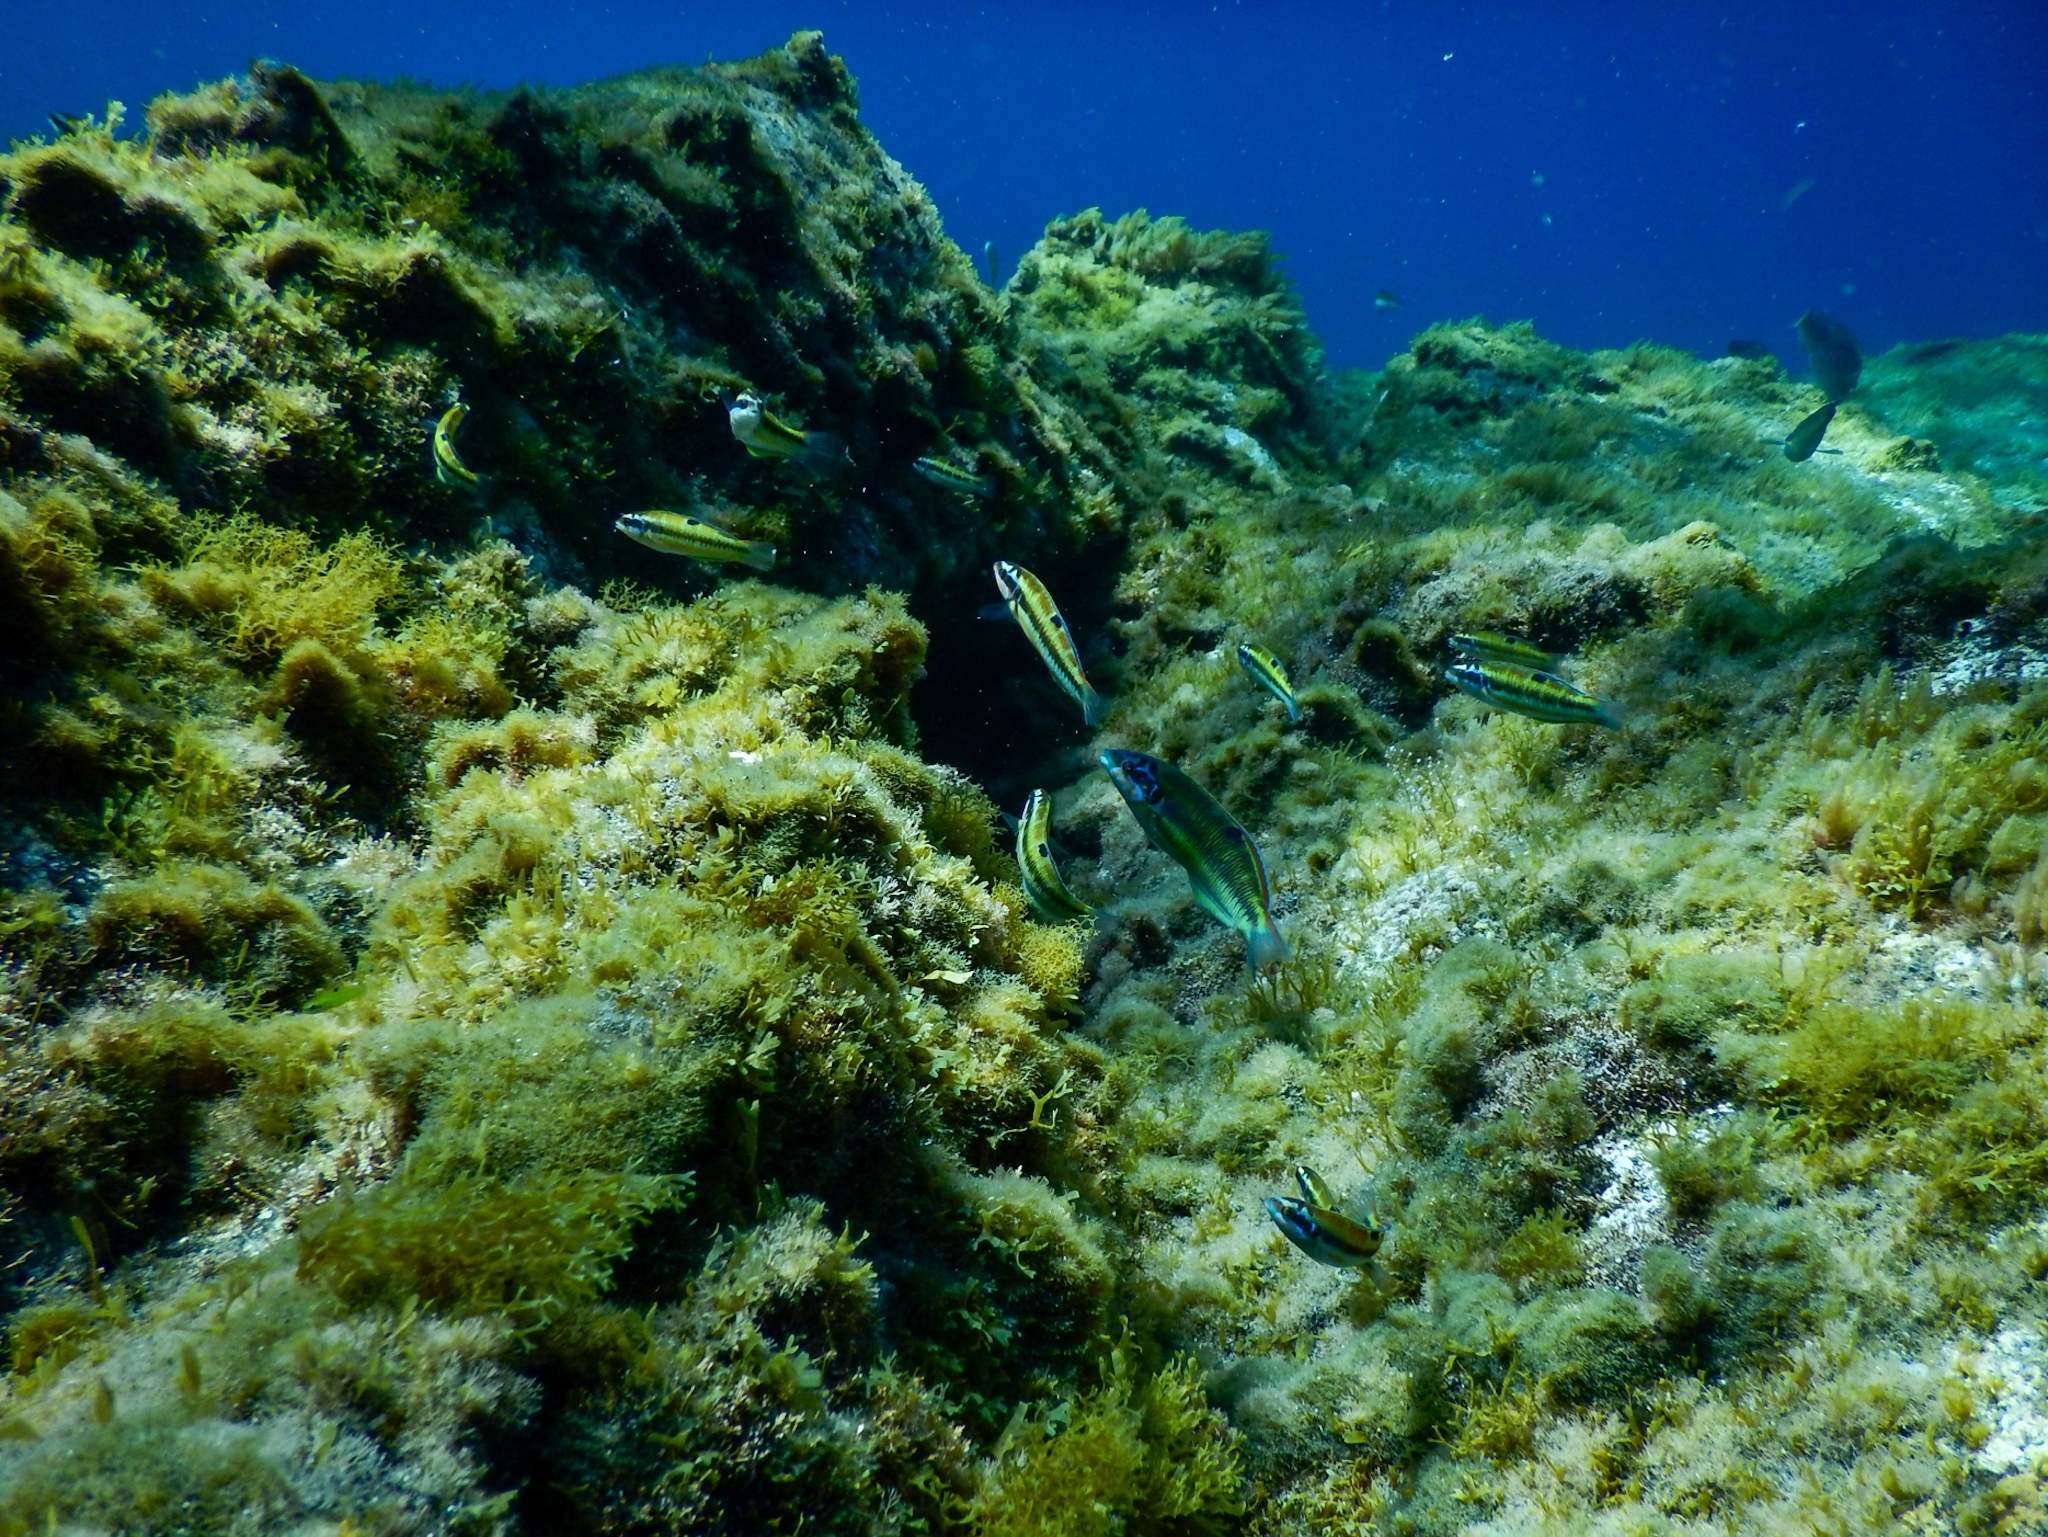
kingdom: Animalia
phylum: Chordata
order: Perciformes
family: Labridae
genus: Thalassoma
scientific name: Thalassoma pavo
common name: Ornate wrasse
